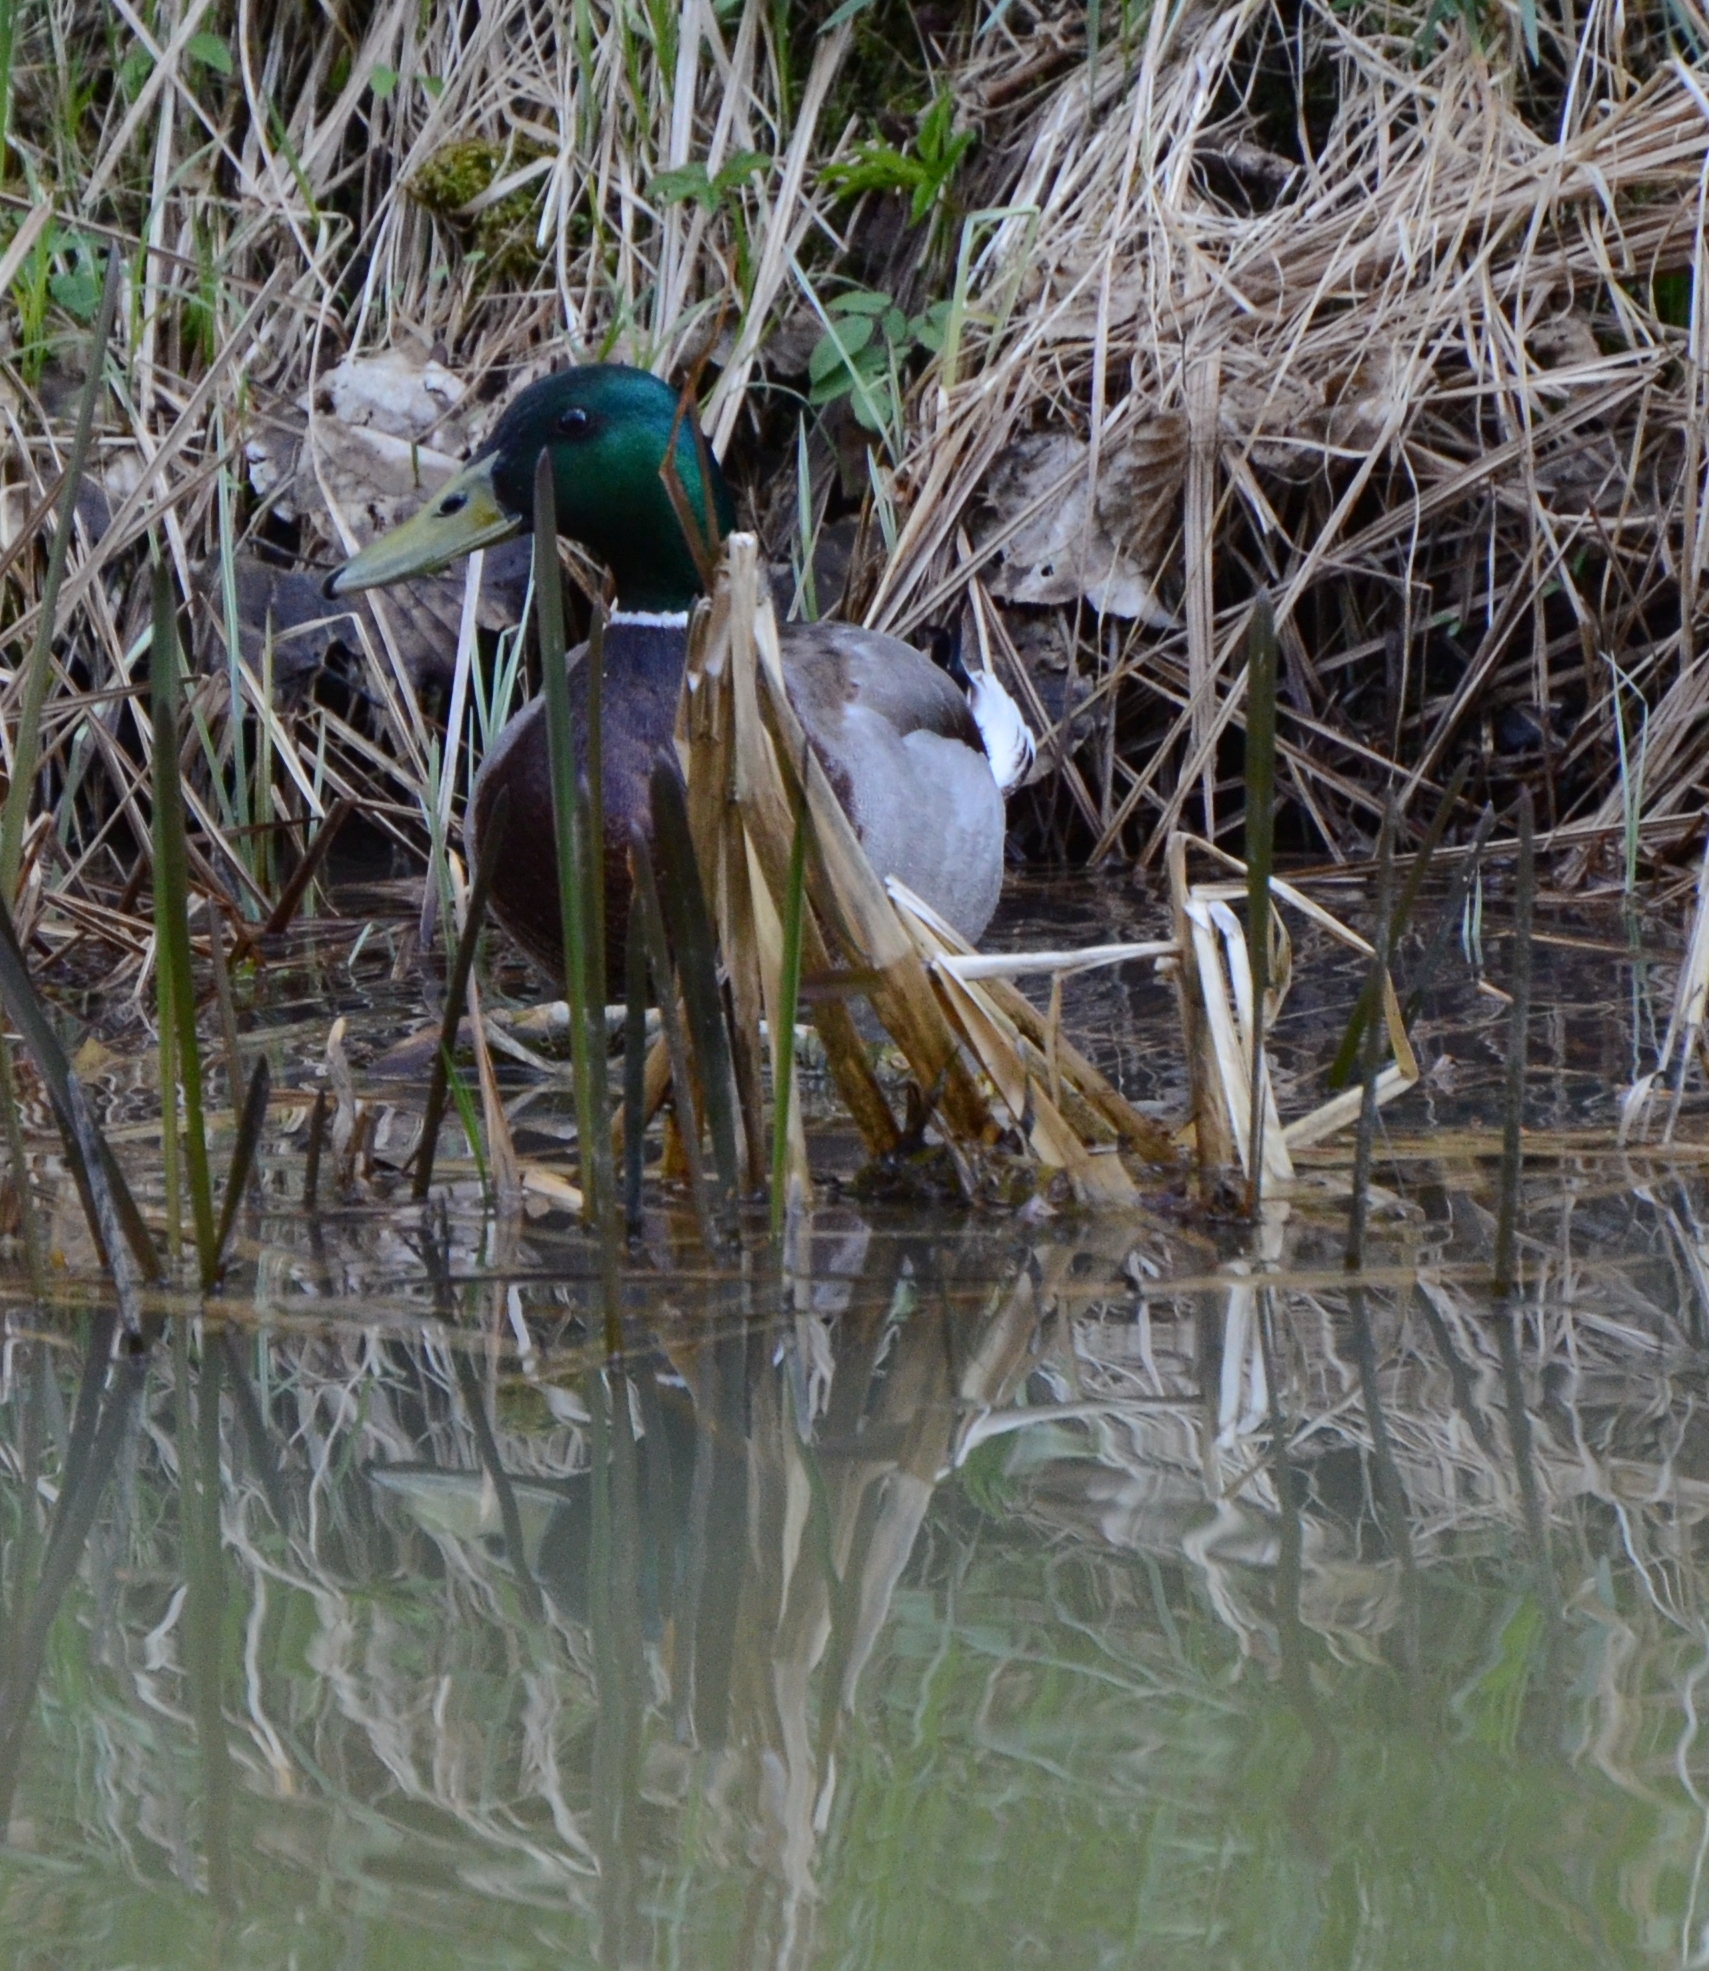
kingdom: Animalia
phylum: Chordata
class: Aves
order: Anseriformes
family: Anatidae
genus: Anas
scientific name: Anas platyrhynchos
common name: Mallard
